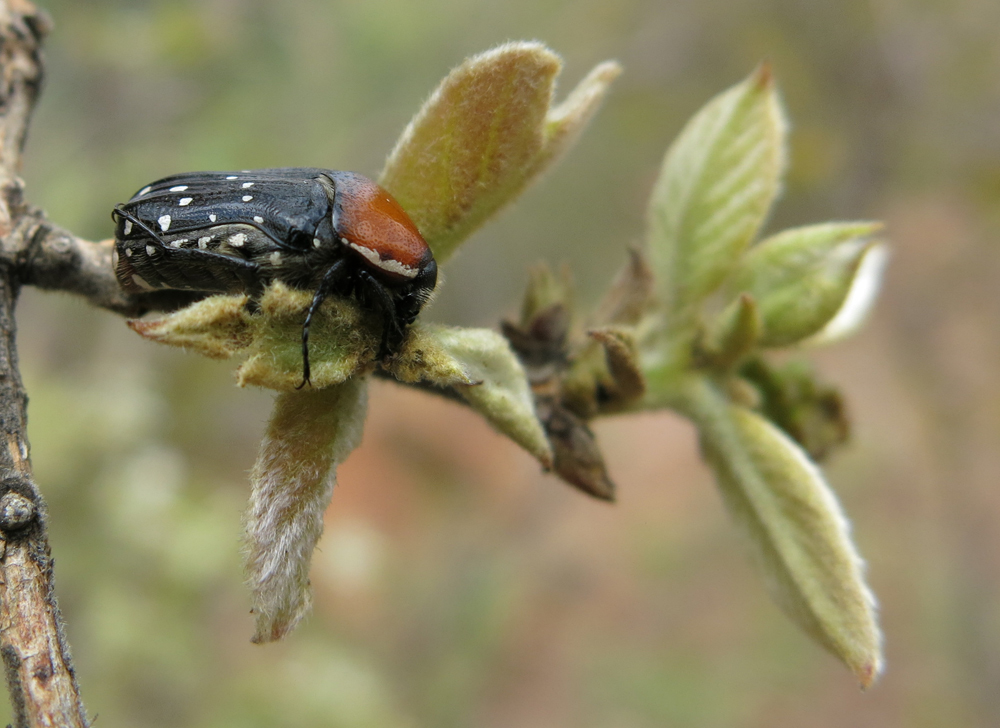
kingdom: Animalia
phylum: Arthropoda
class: Insecta
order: Coleoptera
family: Scarabaeidae
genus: Clinteroides
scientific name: Clinteroides permutans
